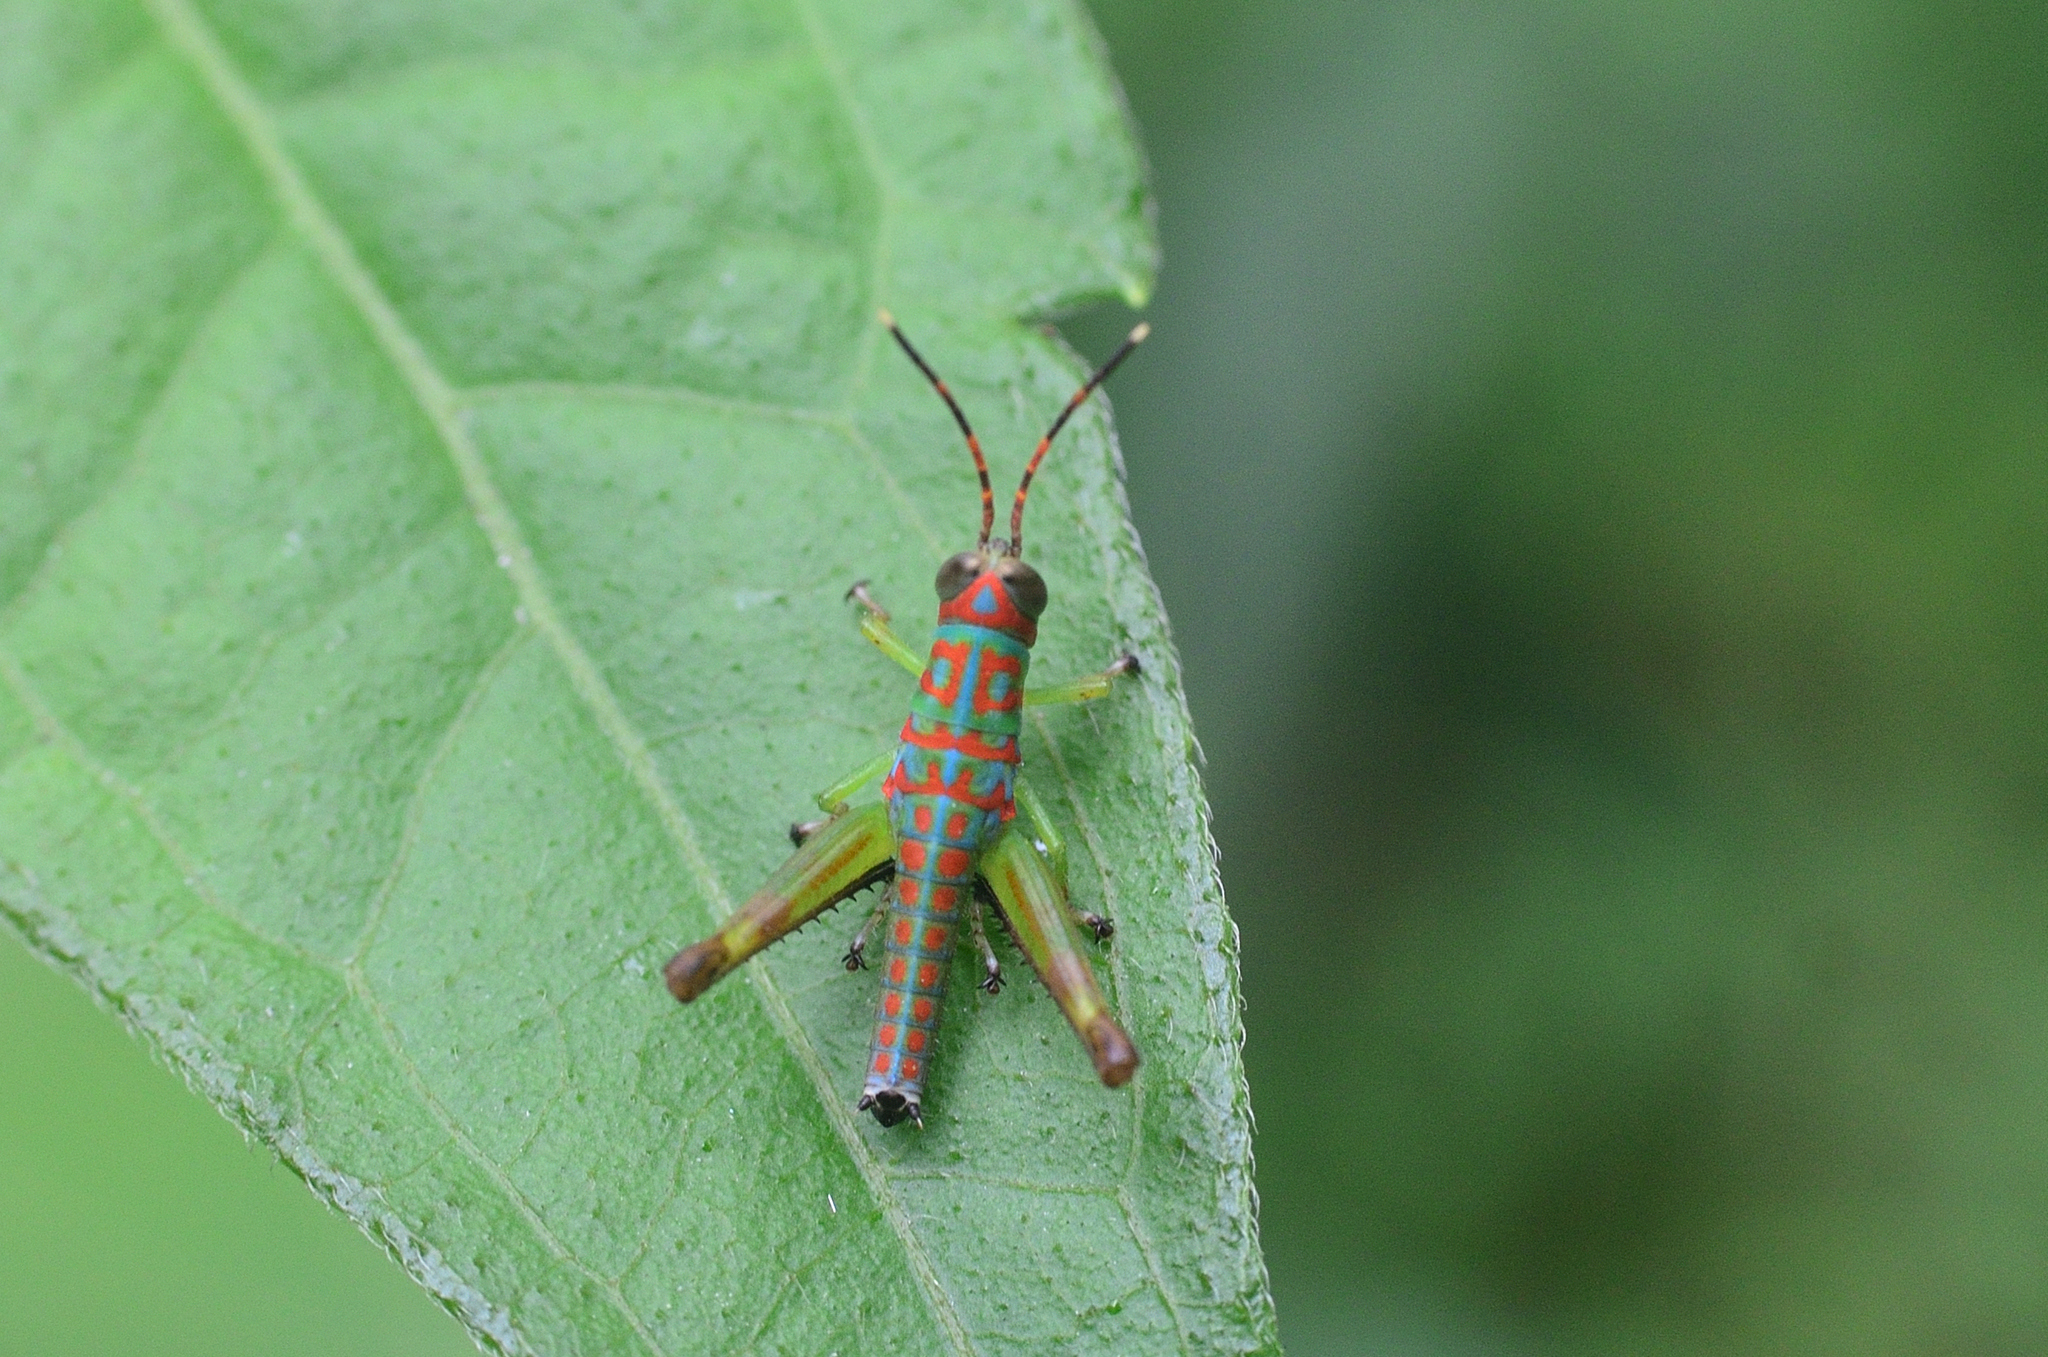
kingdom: Animalia
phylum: Arthropoda
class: Insecta
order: Orthoptera
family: Acrididae
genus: Pirithoicus
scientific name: Pirithoicus ophthalmicus
